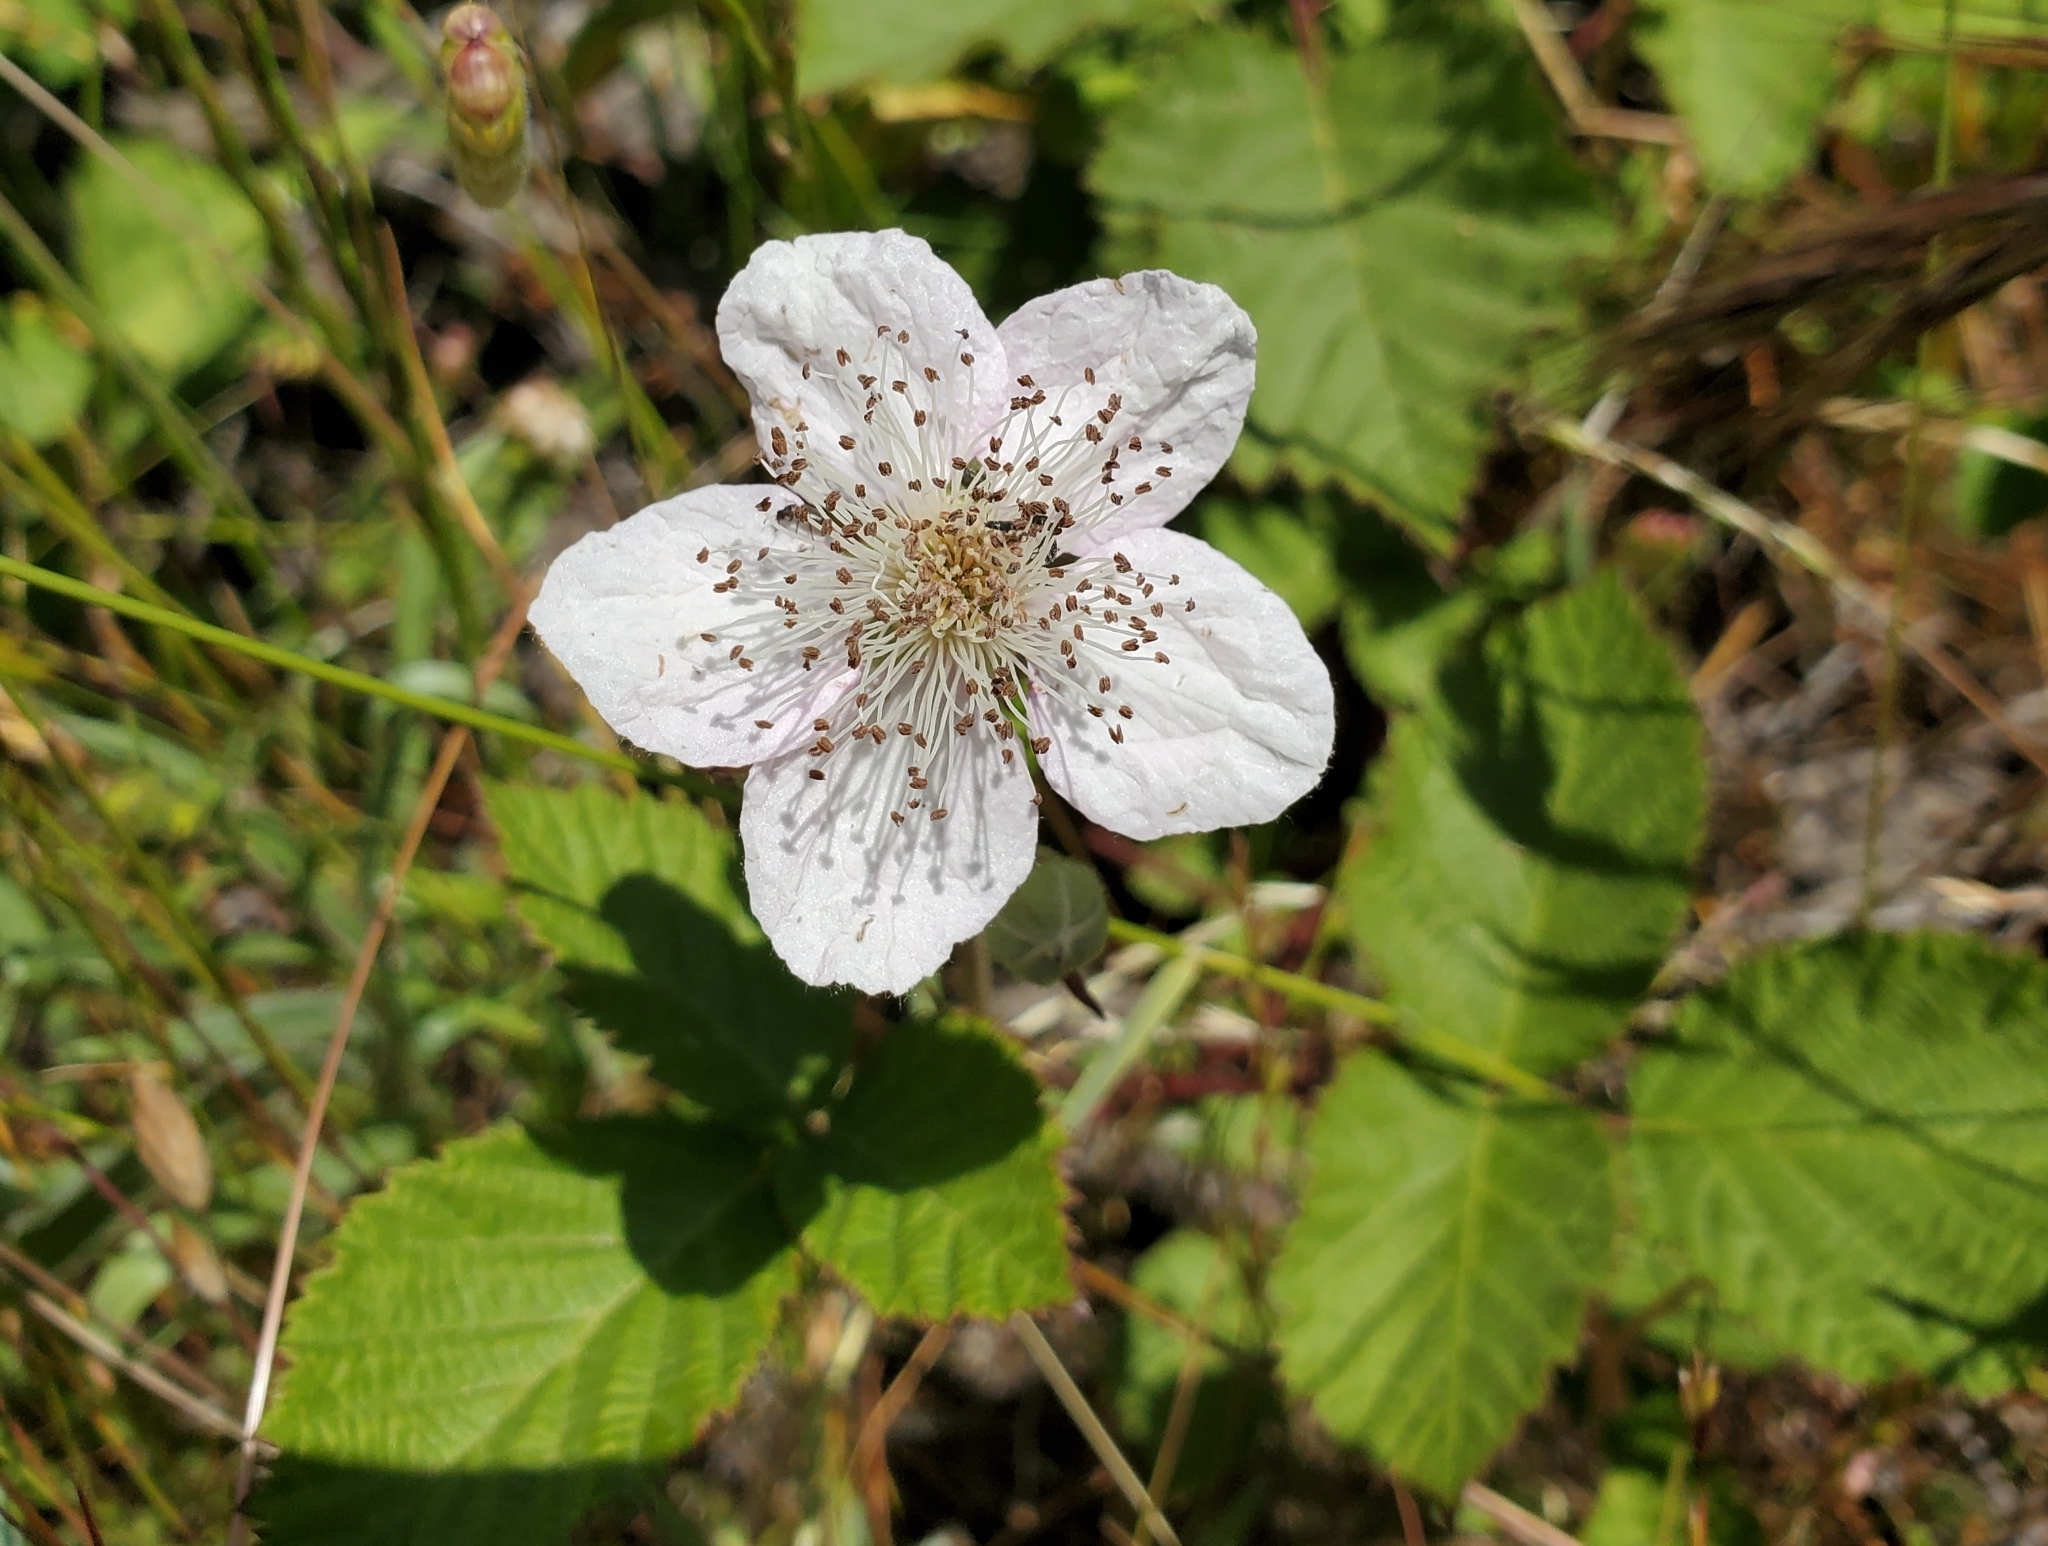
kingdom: Plantae
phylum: Tracheophyta
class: Magnoliopsida
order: Rosales
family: Rosaceae
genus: Rubus
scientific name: Rubus armeniacus
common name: Himalayan blackberry
